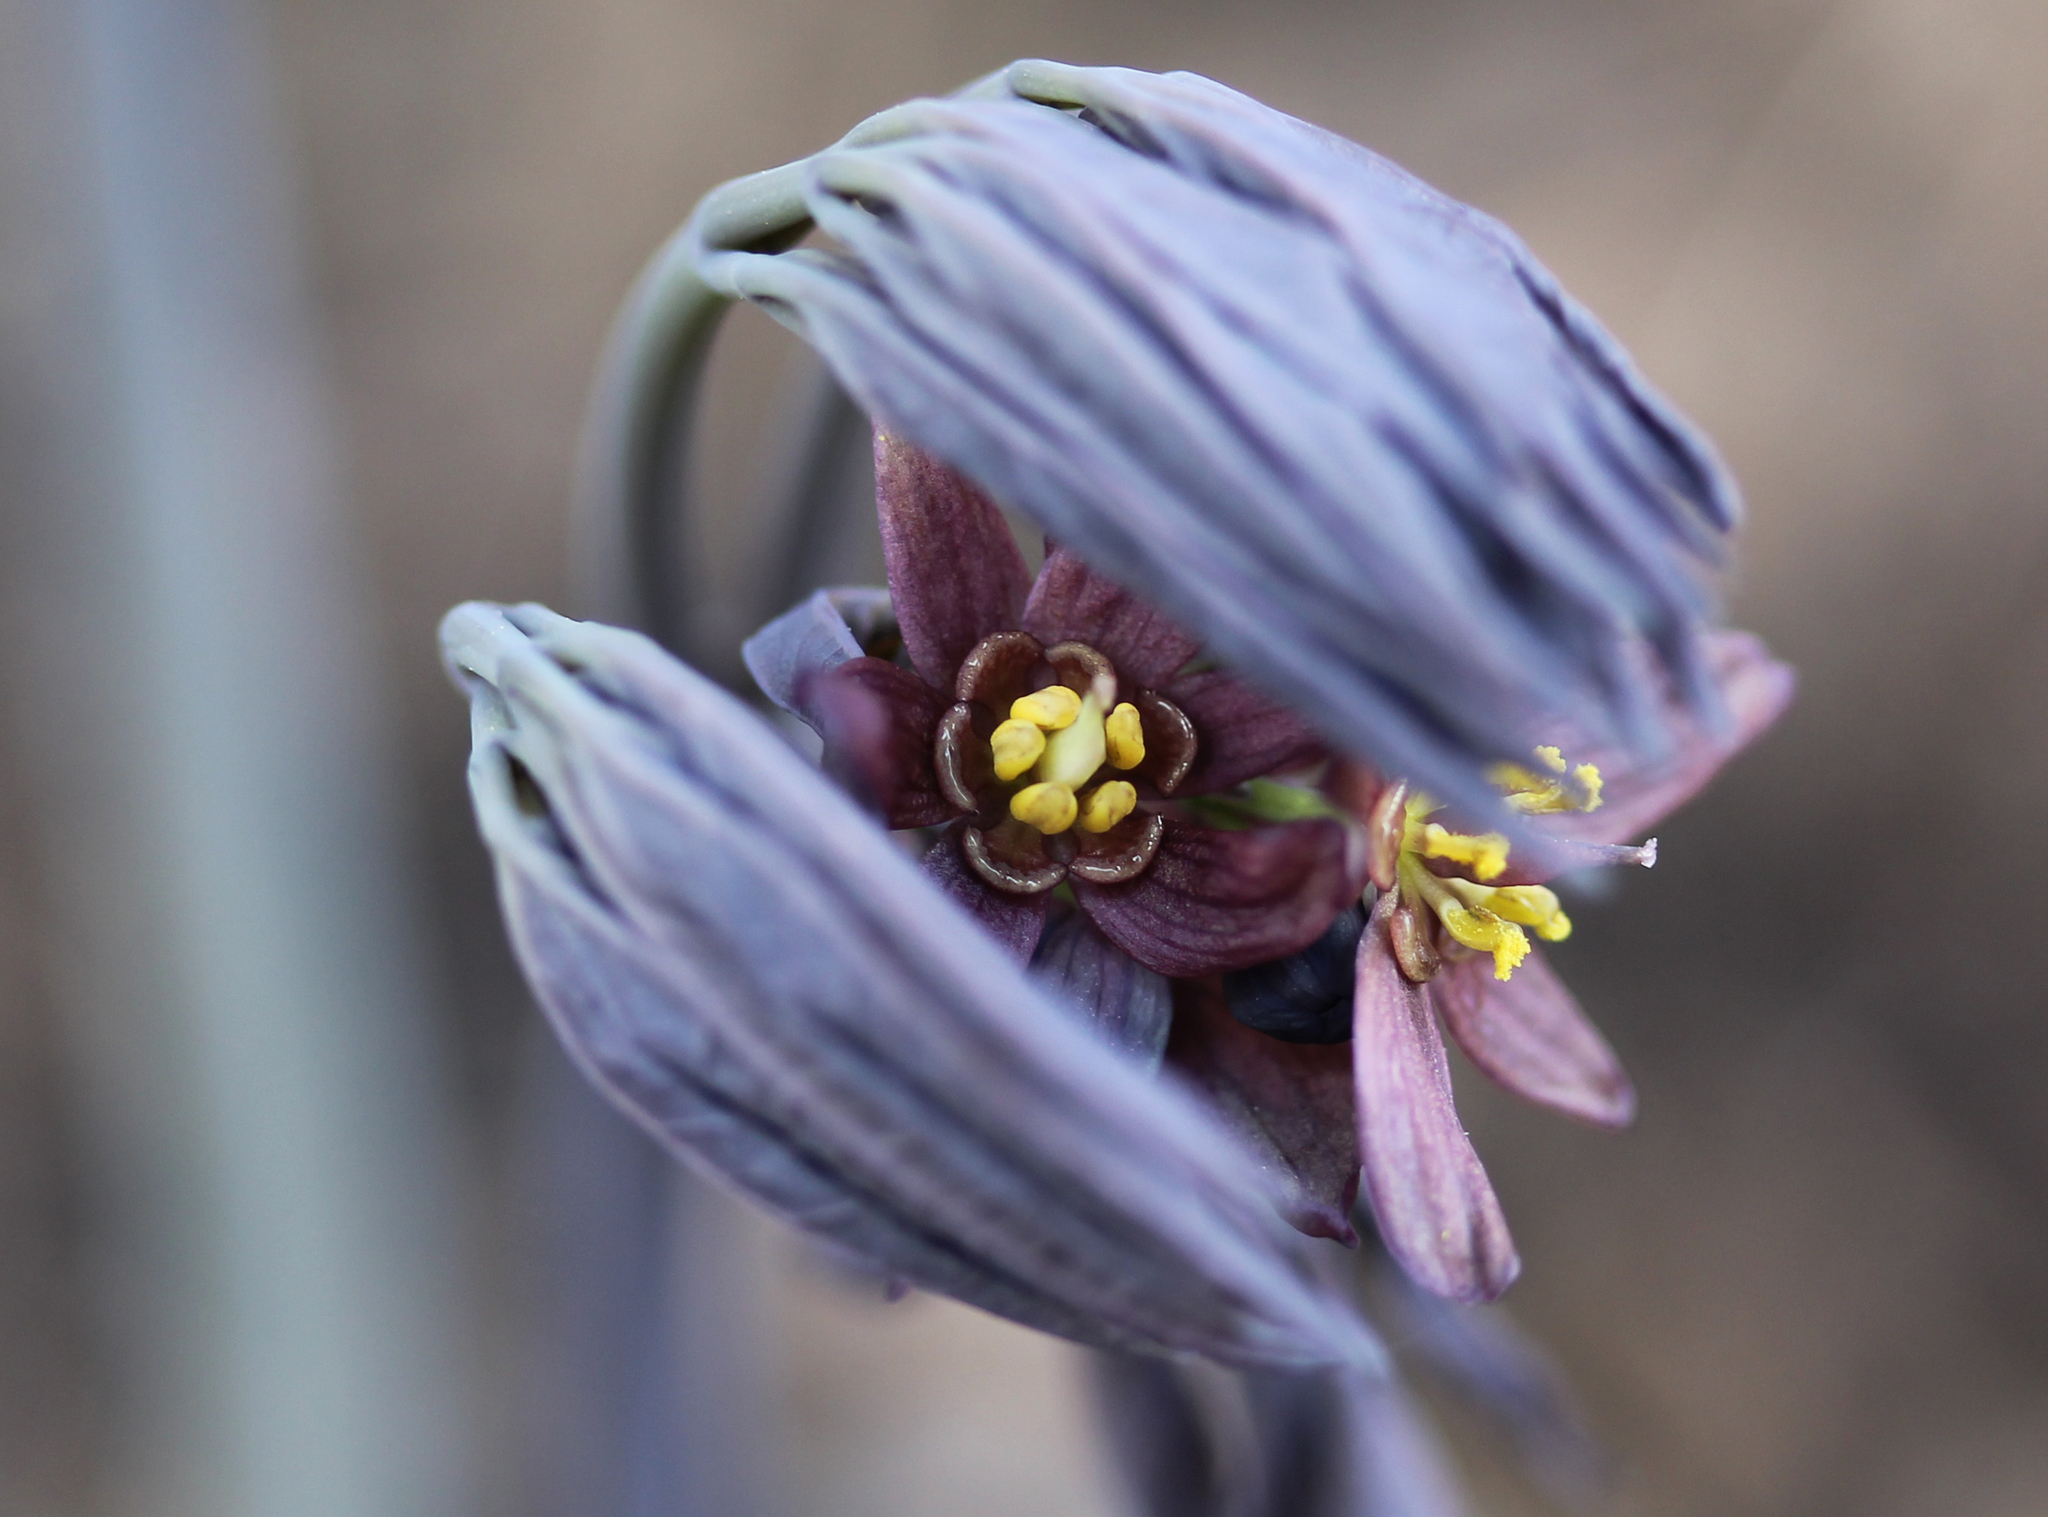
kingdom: Plantae
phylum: Tracheophyta
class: Magnoliopsida
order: Ranunculales
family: Berberidaceae
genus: Caulophyllum
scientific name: Caulophyllum giganteum
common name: Blue cohosh
